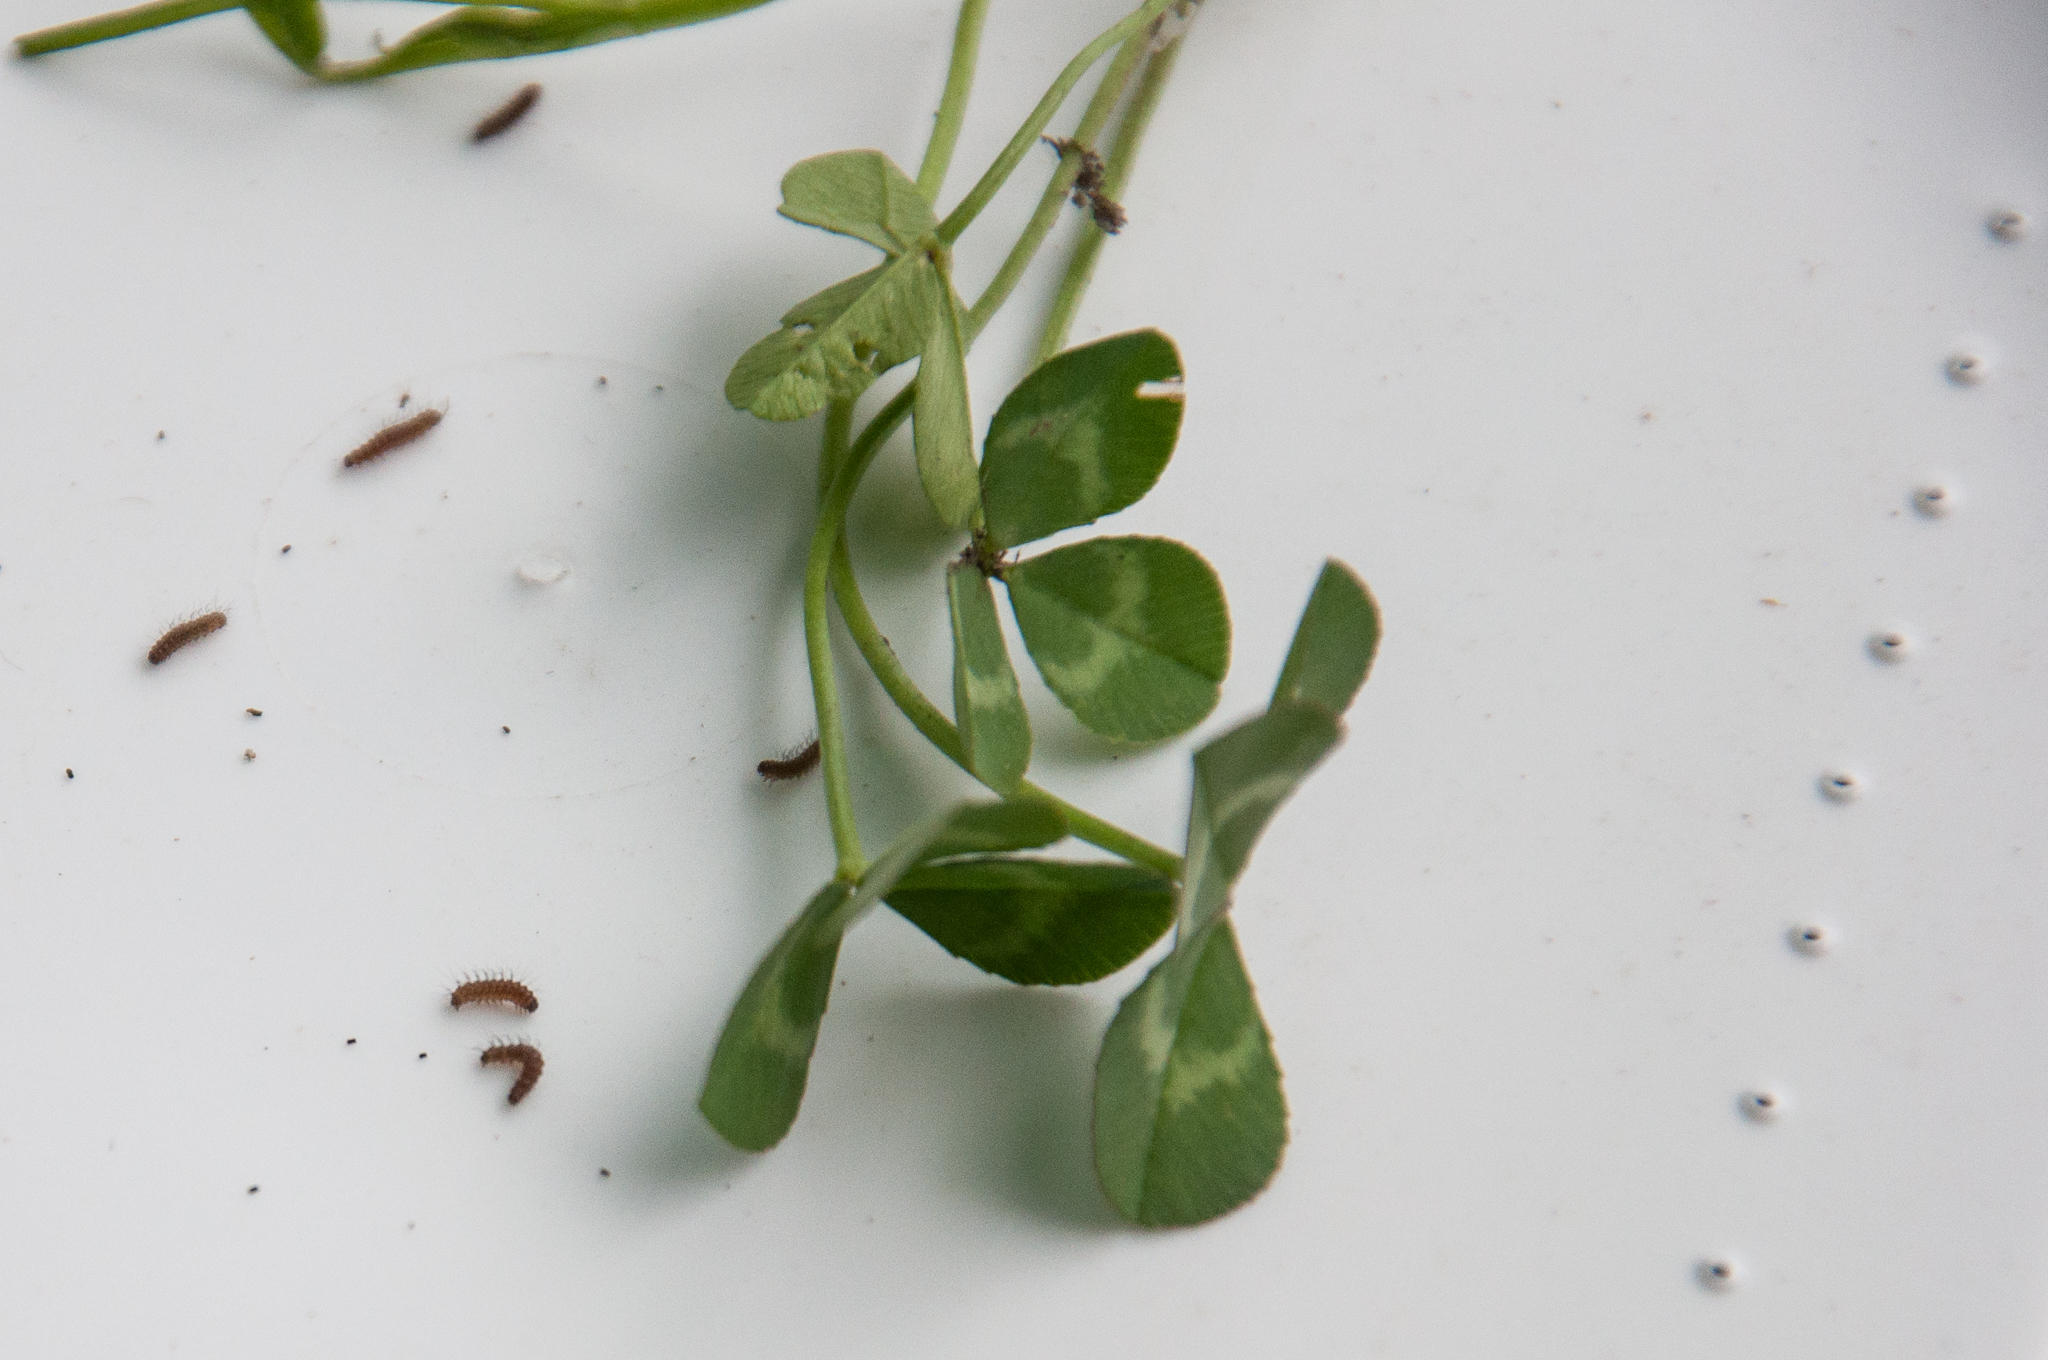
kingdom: Plantae
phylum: Tracheophyta
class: Magnoliopsida
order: Fabales
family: Fabaceae
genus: Trifolium
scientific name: Trifolium repens
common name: White clover
